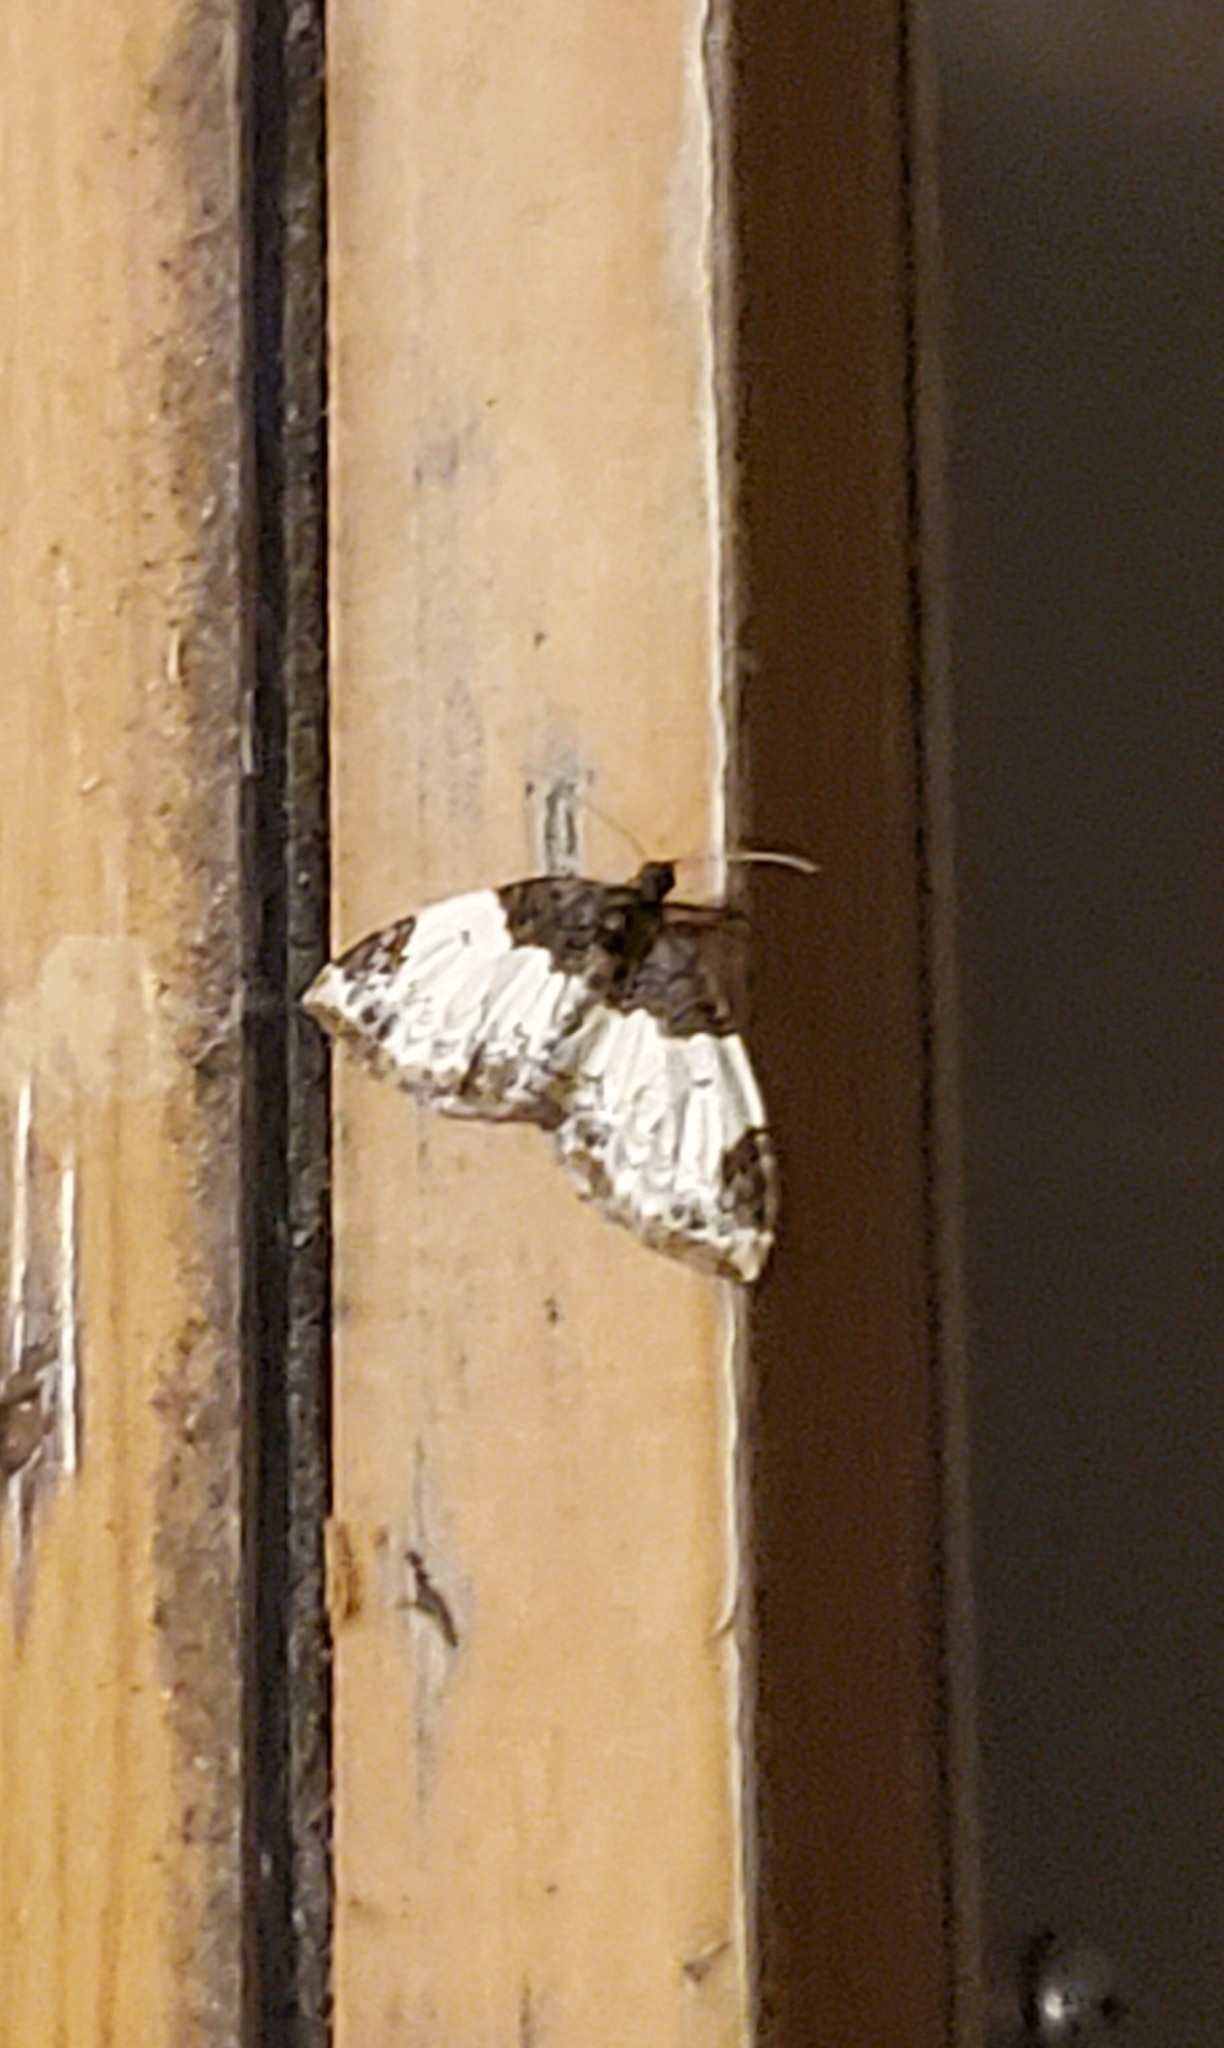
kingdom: Animalia
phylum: Arthropoda
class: Insecta
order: Lepidoptera
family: Geometridae
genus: Mesoleuca
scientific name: Mesoleuca ruficillata
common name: White-ribboned carpet moth
